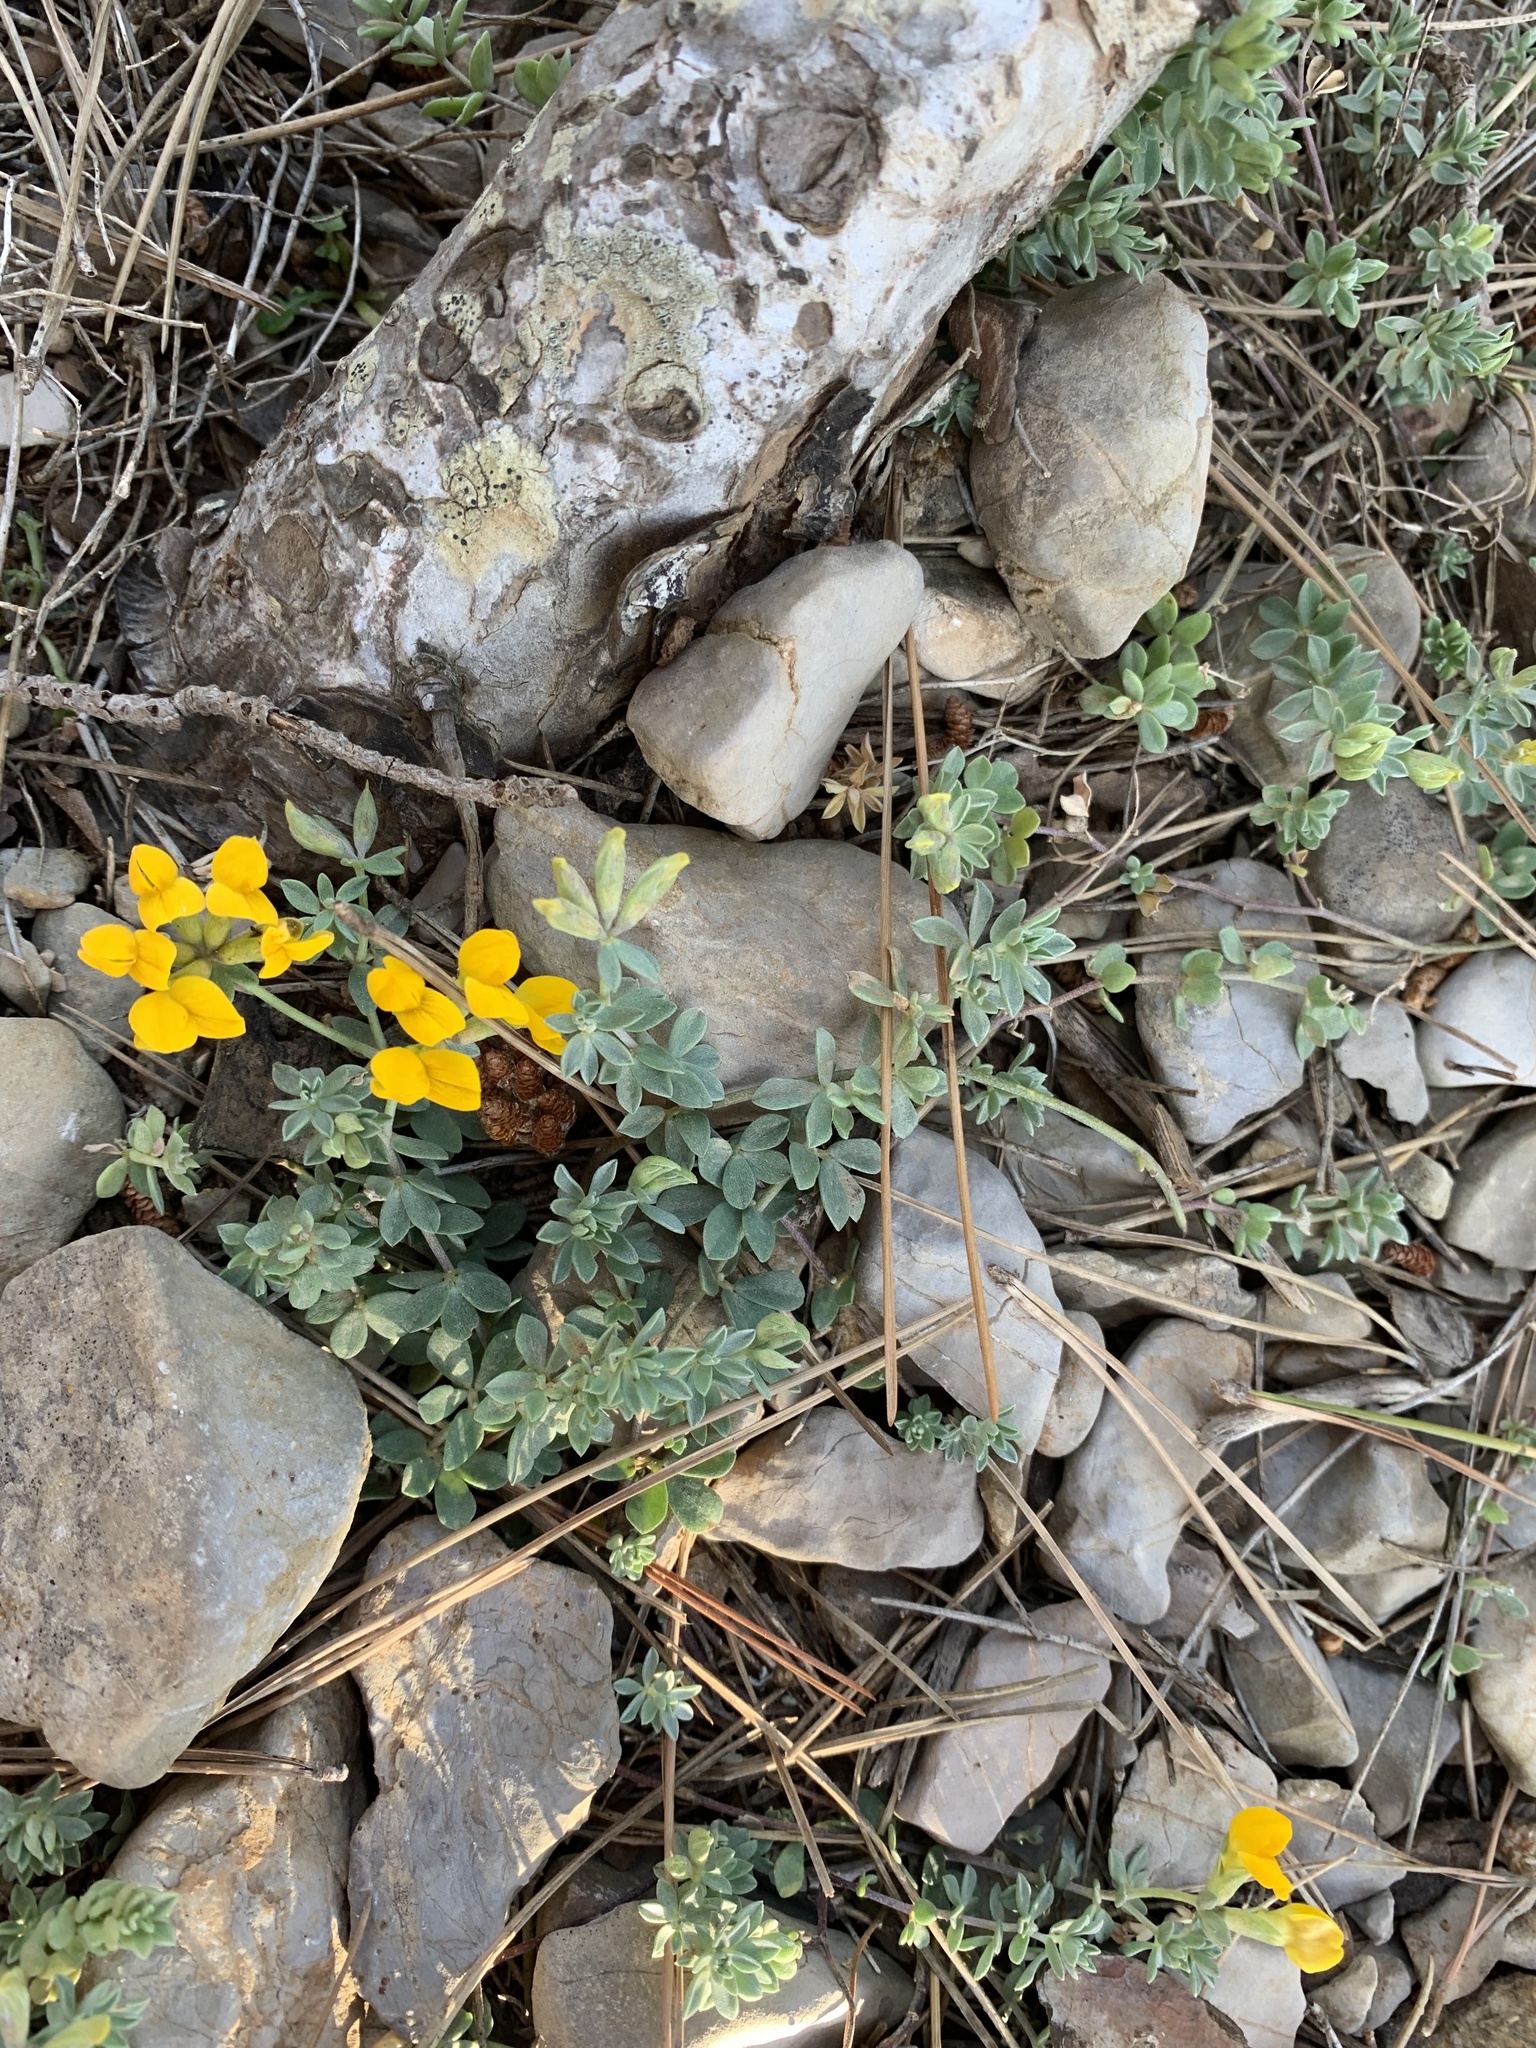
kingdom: Plantae
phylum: Tracheophyta
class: Magnoliopsida
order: Fabales
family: Fabaceae
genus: Lotus
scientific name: Lotus cytisoides
